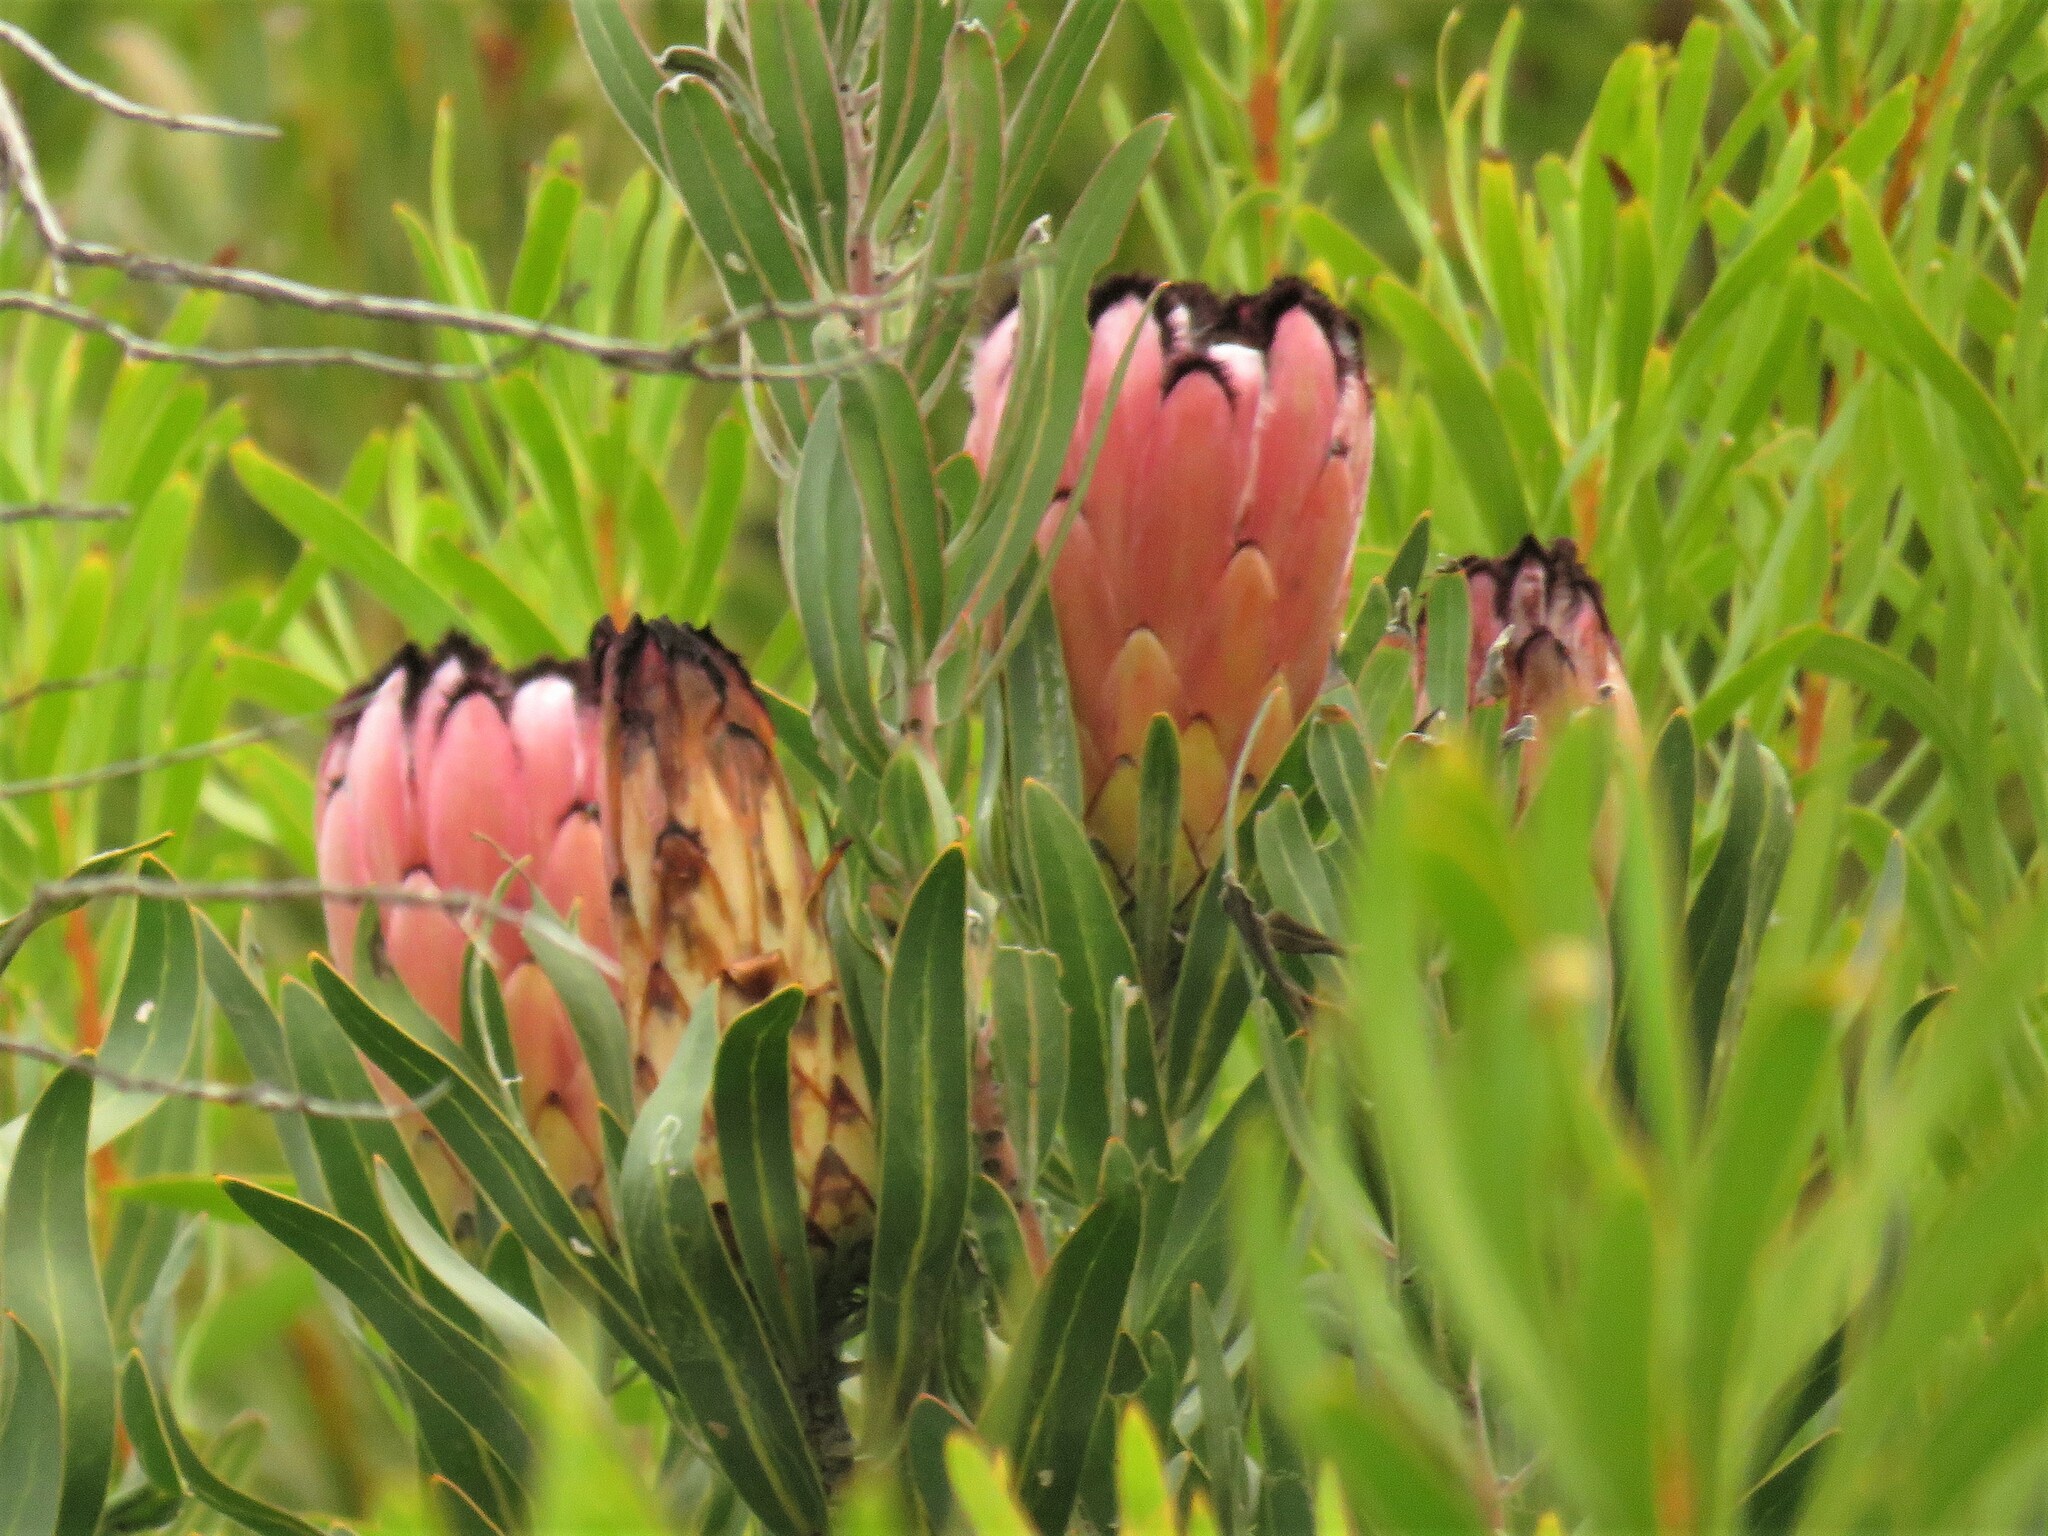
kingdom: Plantae
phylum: Tracheophyta
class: Magnoliopsida
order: Proteales
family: Proteaceae
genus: Protea
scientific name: Protea burchellii
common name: Burchell's sugarbush
